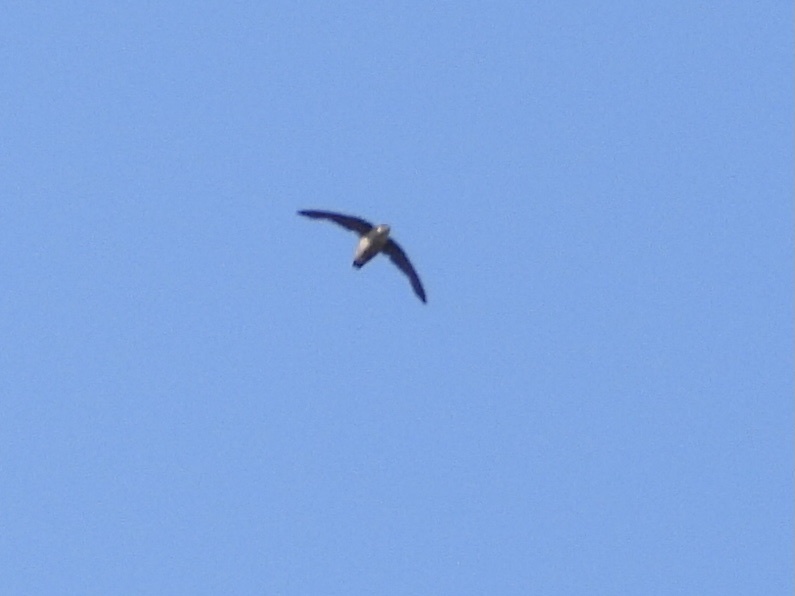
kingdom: Animalia
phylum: Chordata
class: Aves
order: Apodiformes
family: Apodidae
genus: Chaetura
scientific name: Chaetura vauxi
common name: Vaux's swift
